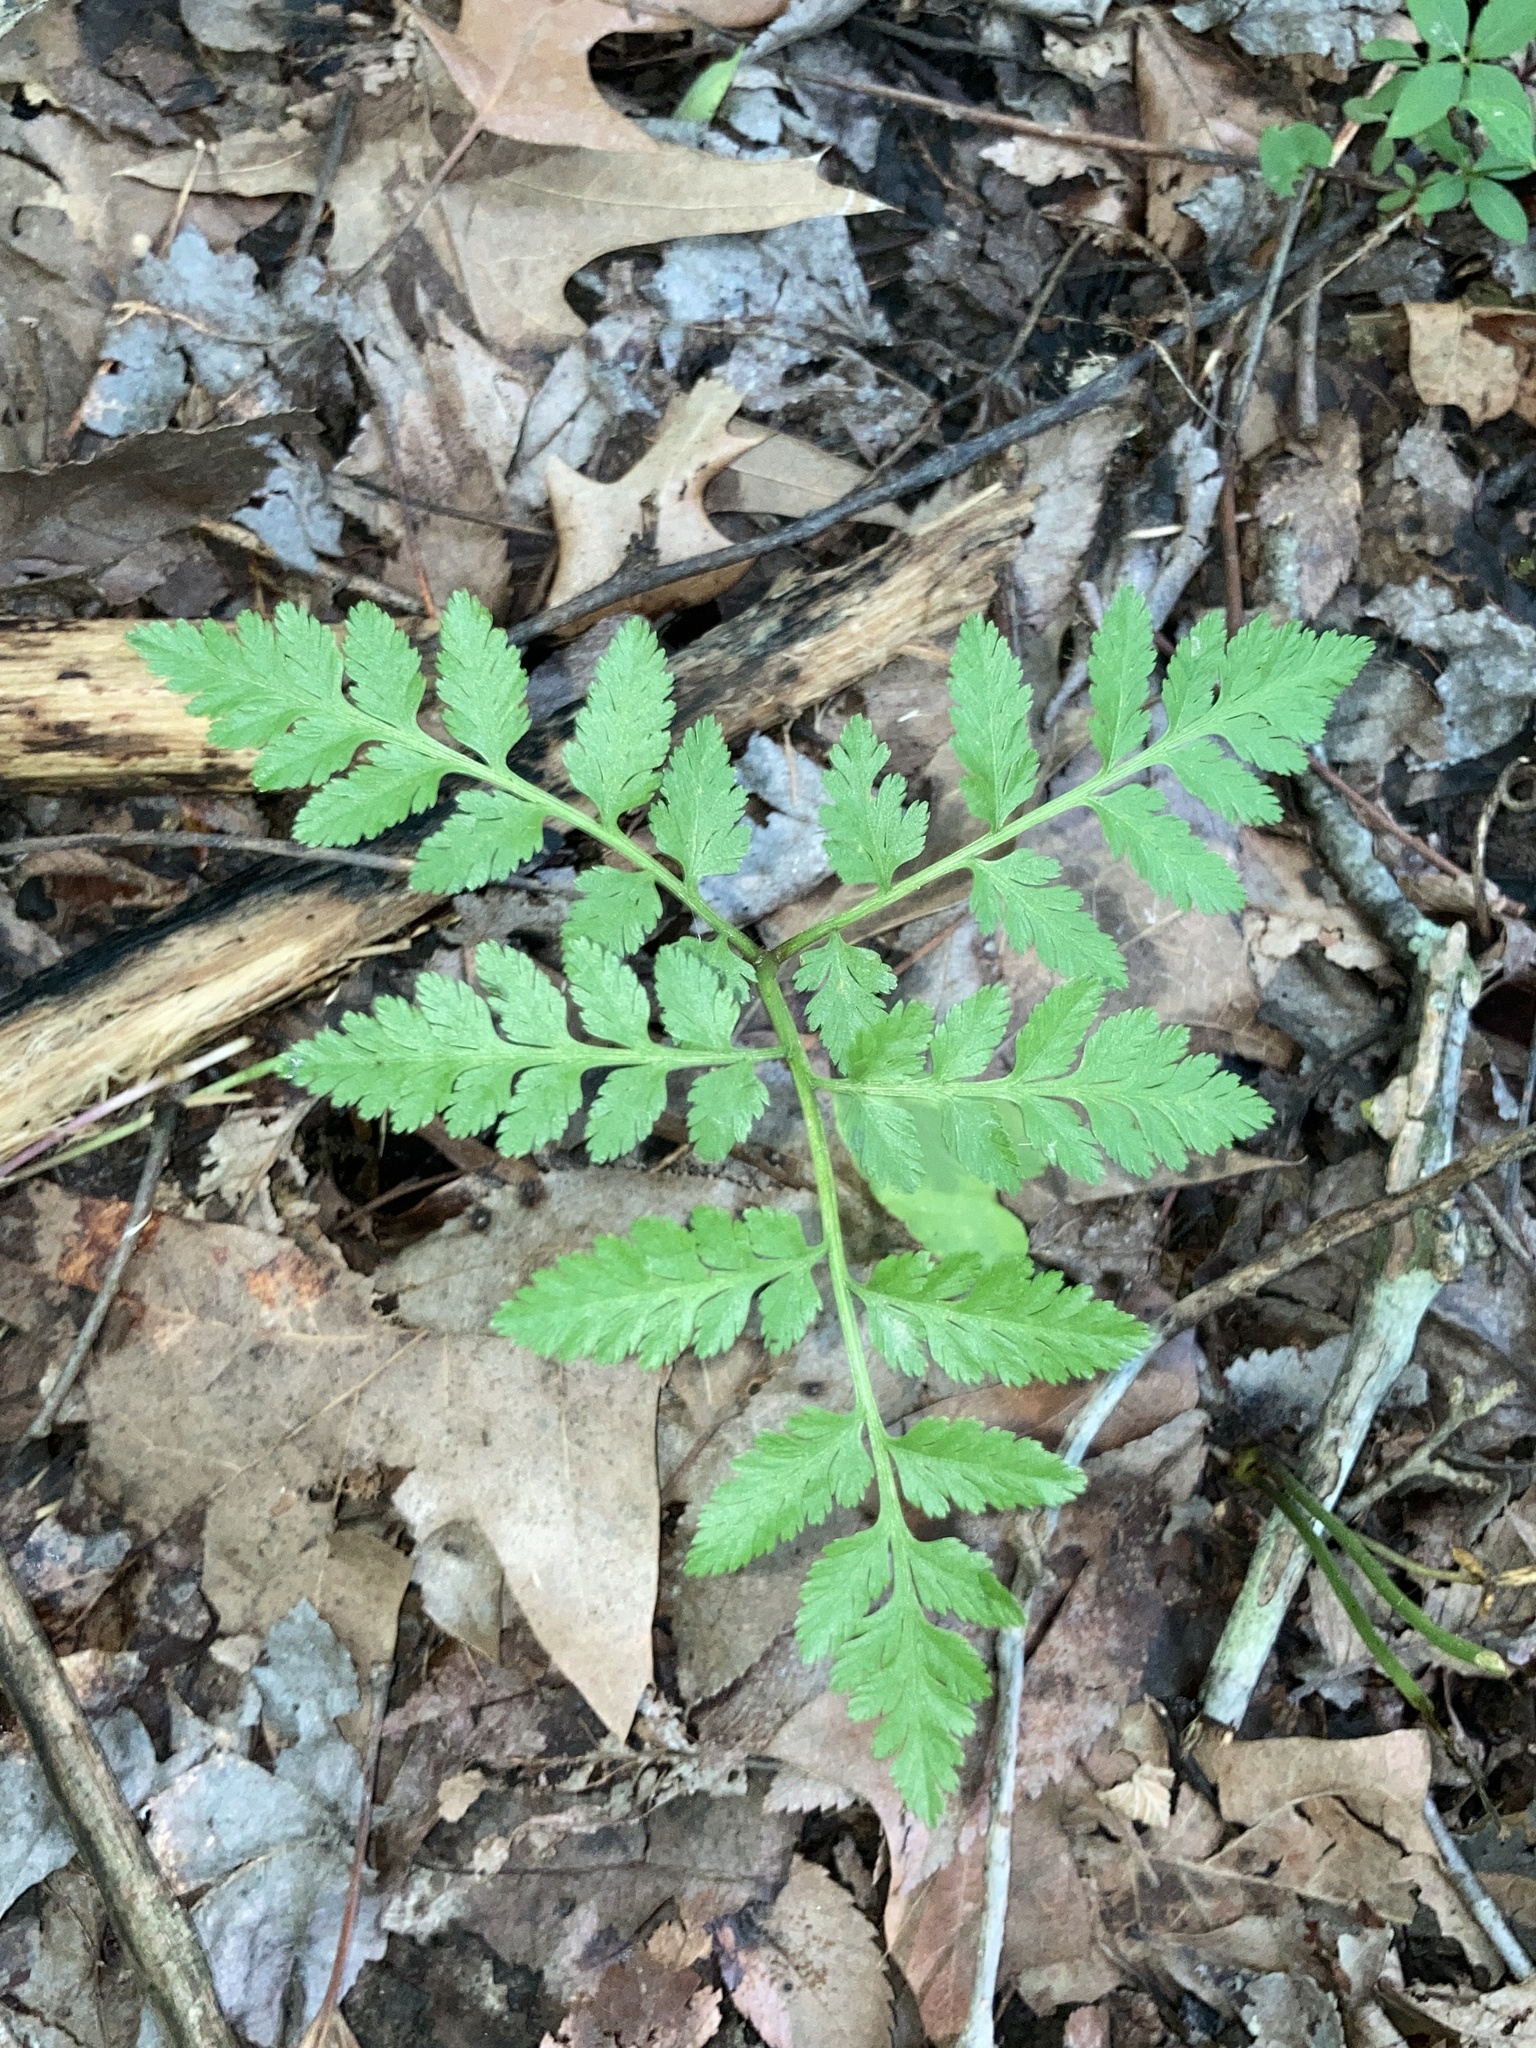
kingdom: Plantae
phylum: Tracheophyta
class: Polypodiopsida
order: Ophioglossales
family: Ophioglossaceae
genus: Botrypus
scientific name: Botrypus virginianus
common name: Common grapefern
